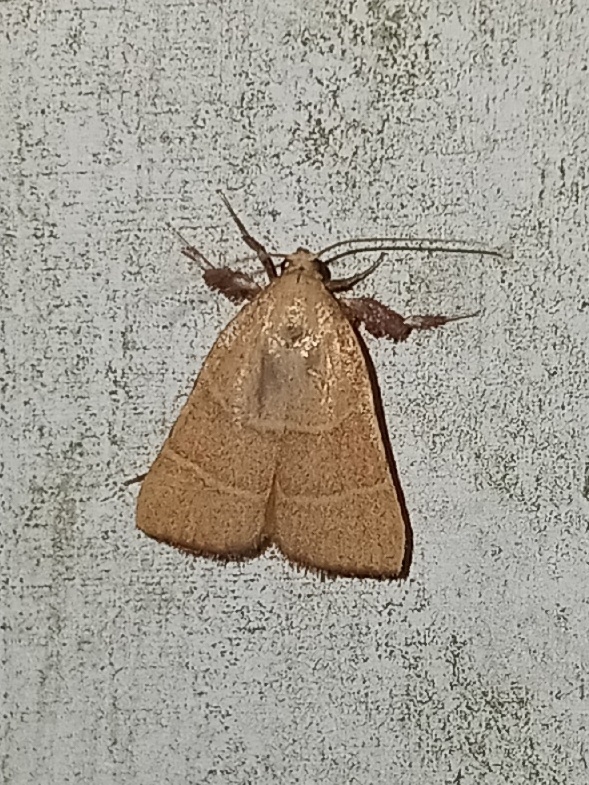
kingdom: Animalia
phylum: Arthropoda
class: Insecta
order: Lepidoptera
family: Pyralidae
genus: Parachma
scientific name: Parachma ochracealis
